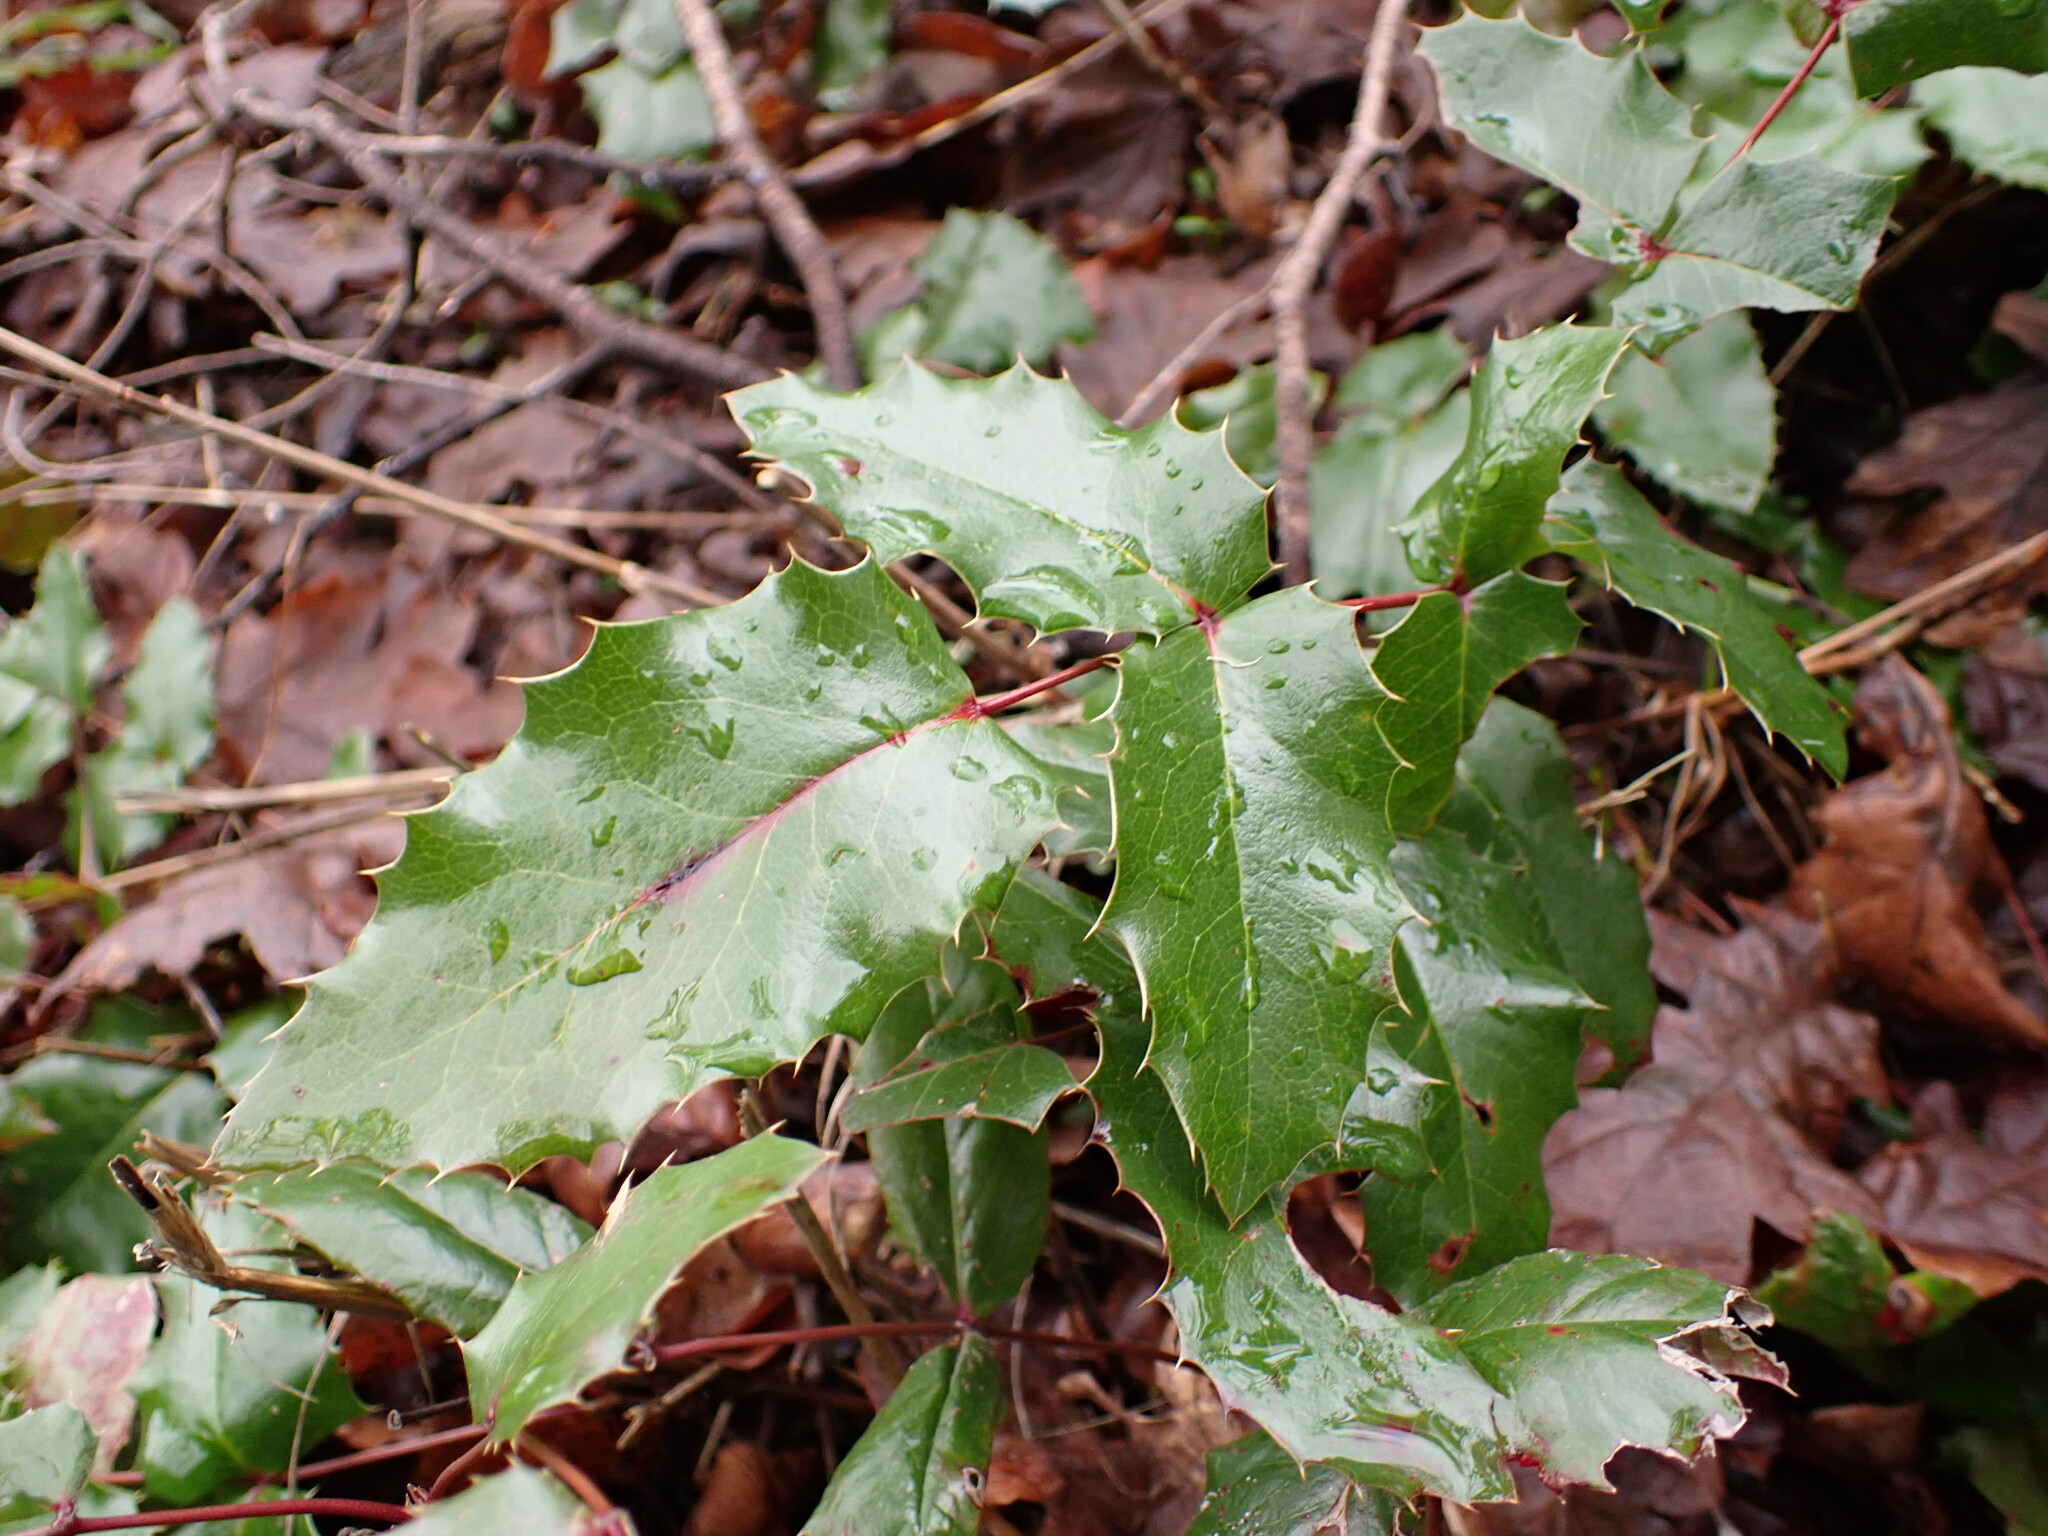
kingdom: Plantae
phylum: Tracheophyta
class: Magnoliopsida
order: Ranunculales
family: Berberidaceae
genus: Mahonia
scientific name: Mahonia aquifolium
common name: Oregon-grape
